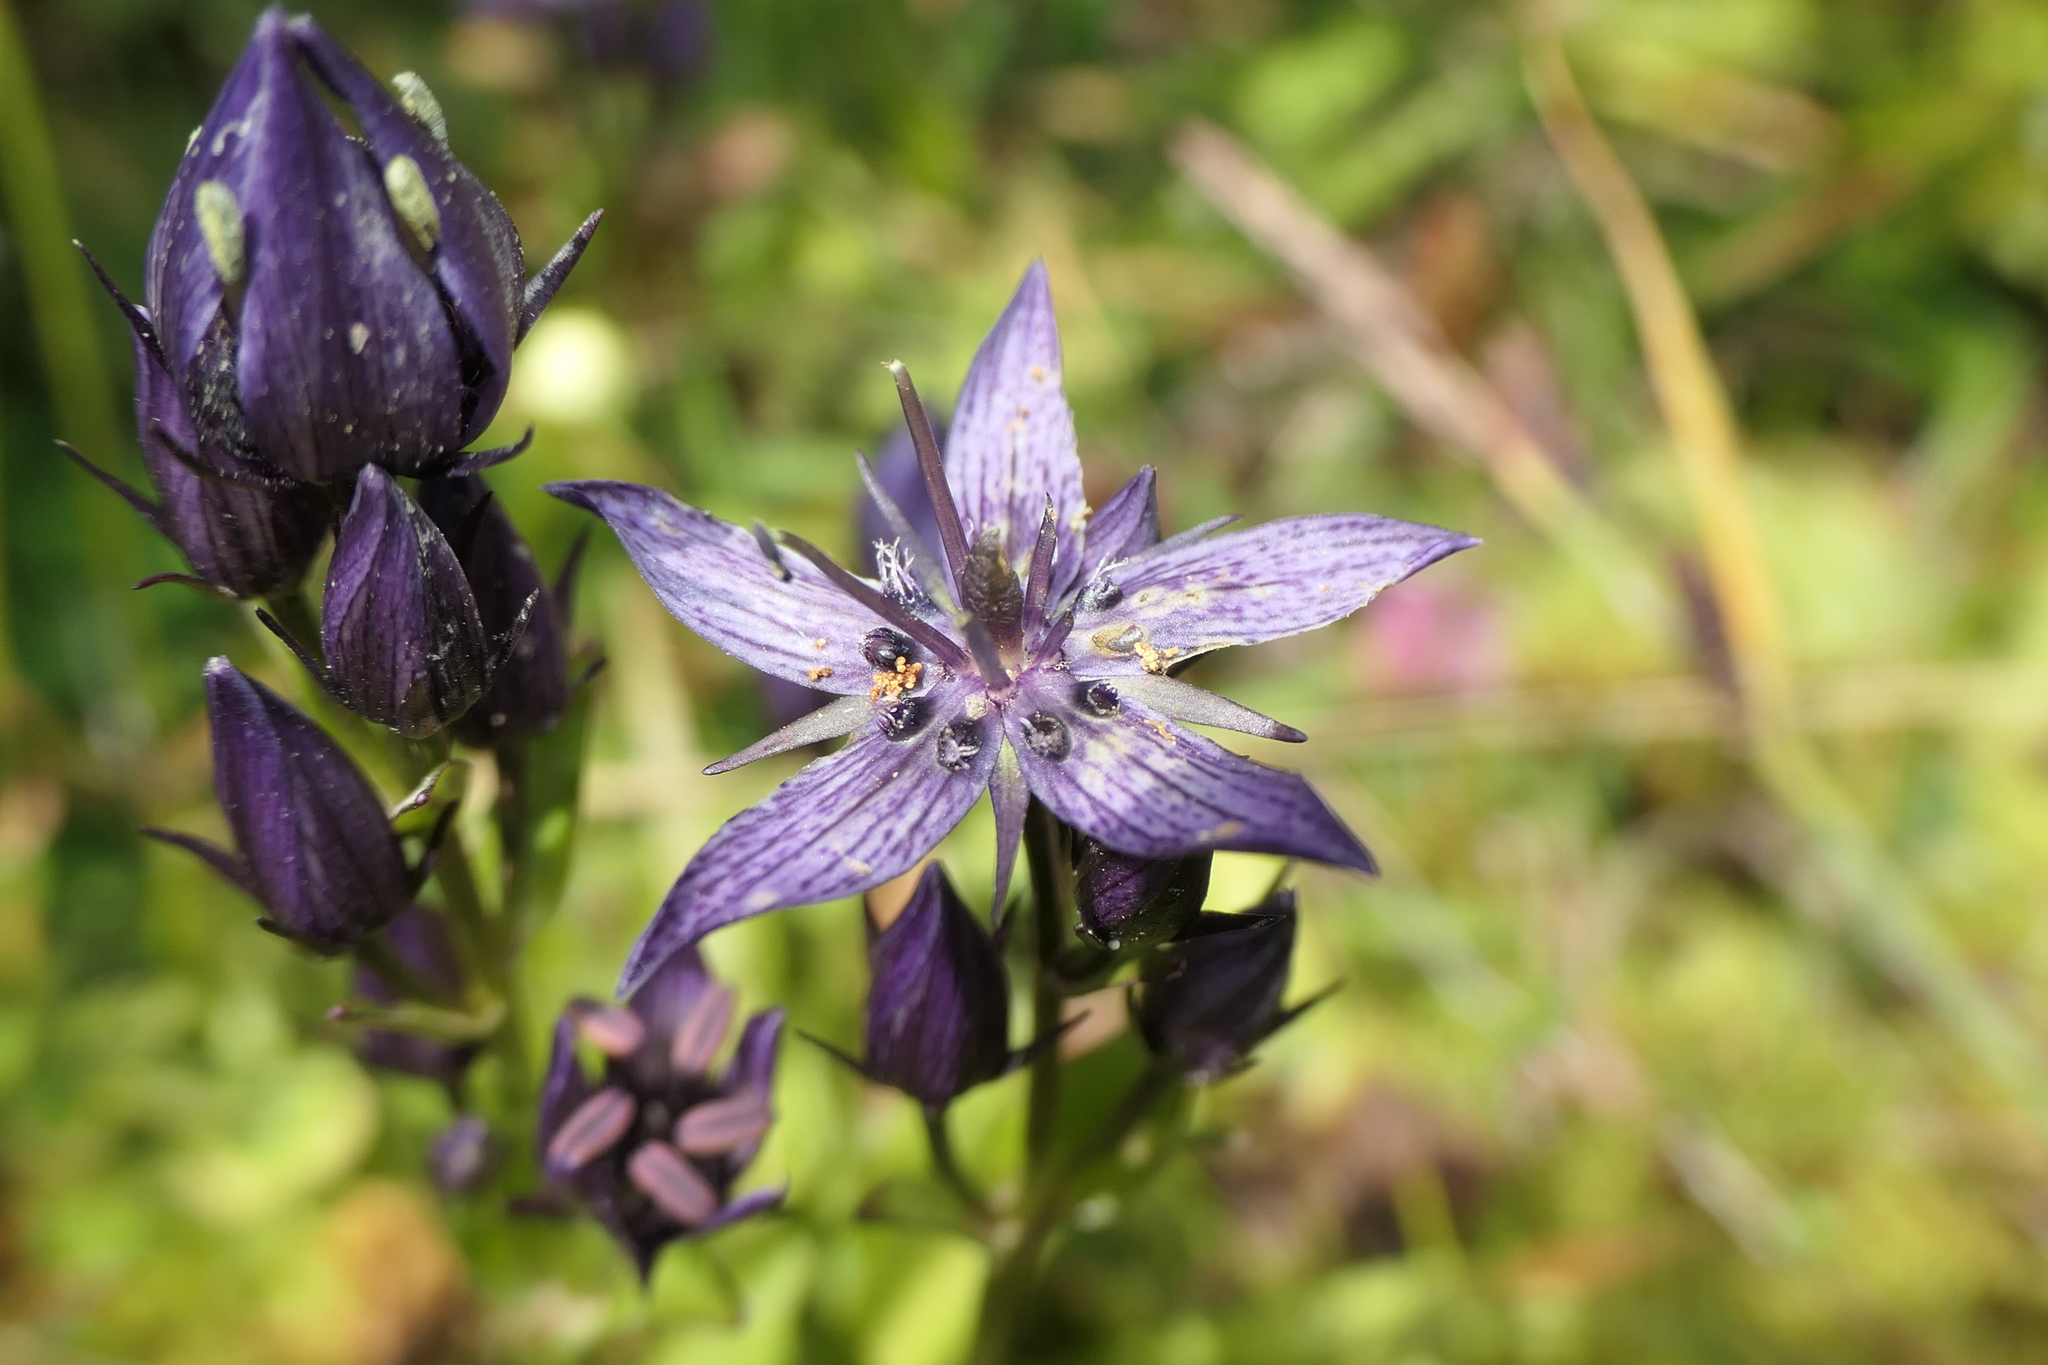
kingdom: Plantae
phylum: Tracheophyta
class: Magnoliopsida
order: Gentianales
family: Gentianaceae
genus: Swertia
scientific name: Swertia perennis
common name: Alpine bog swertia
